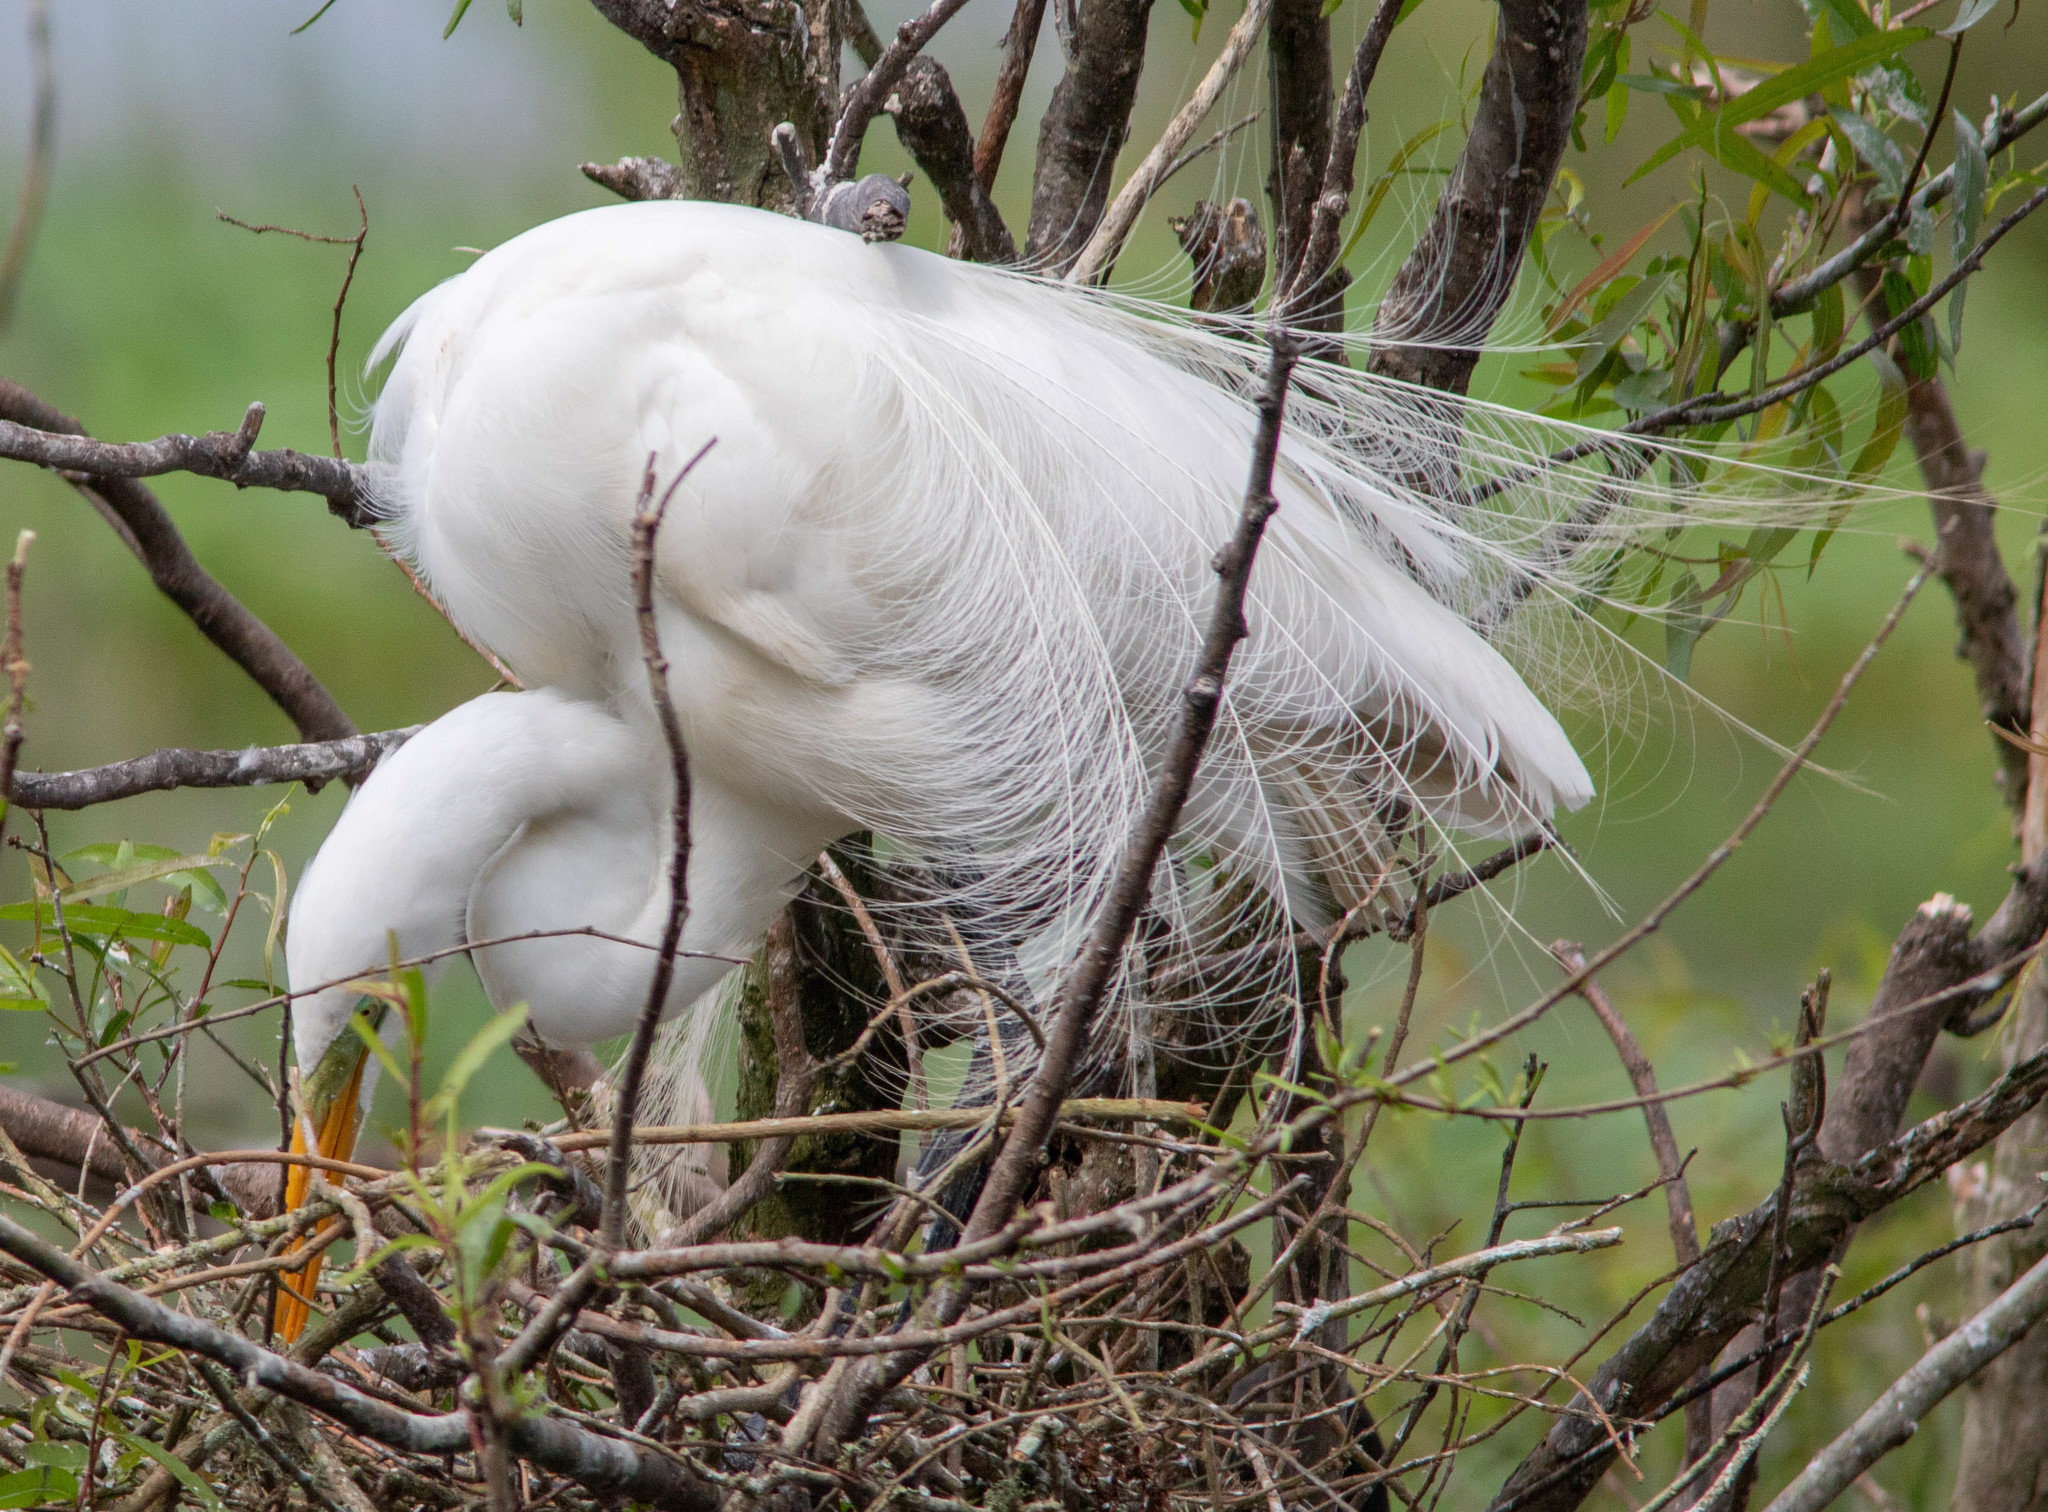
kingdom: Animalia
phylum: Chordata
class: Aves
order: Pelecaniformes
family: Ardeidae
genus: Ardea
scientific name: Ardea alba
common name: Great egret
